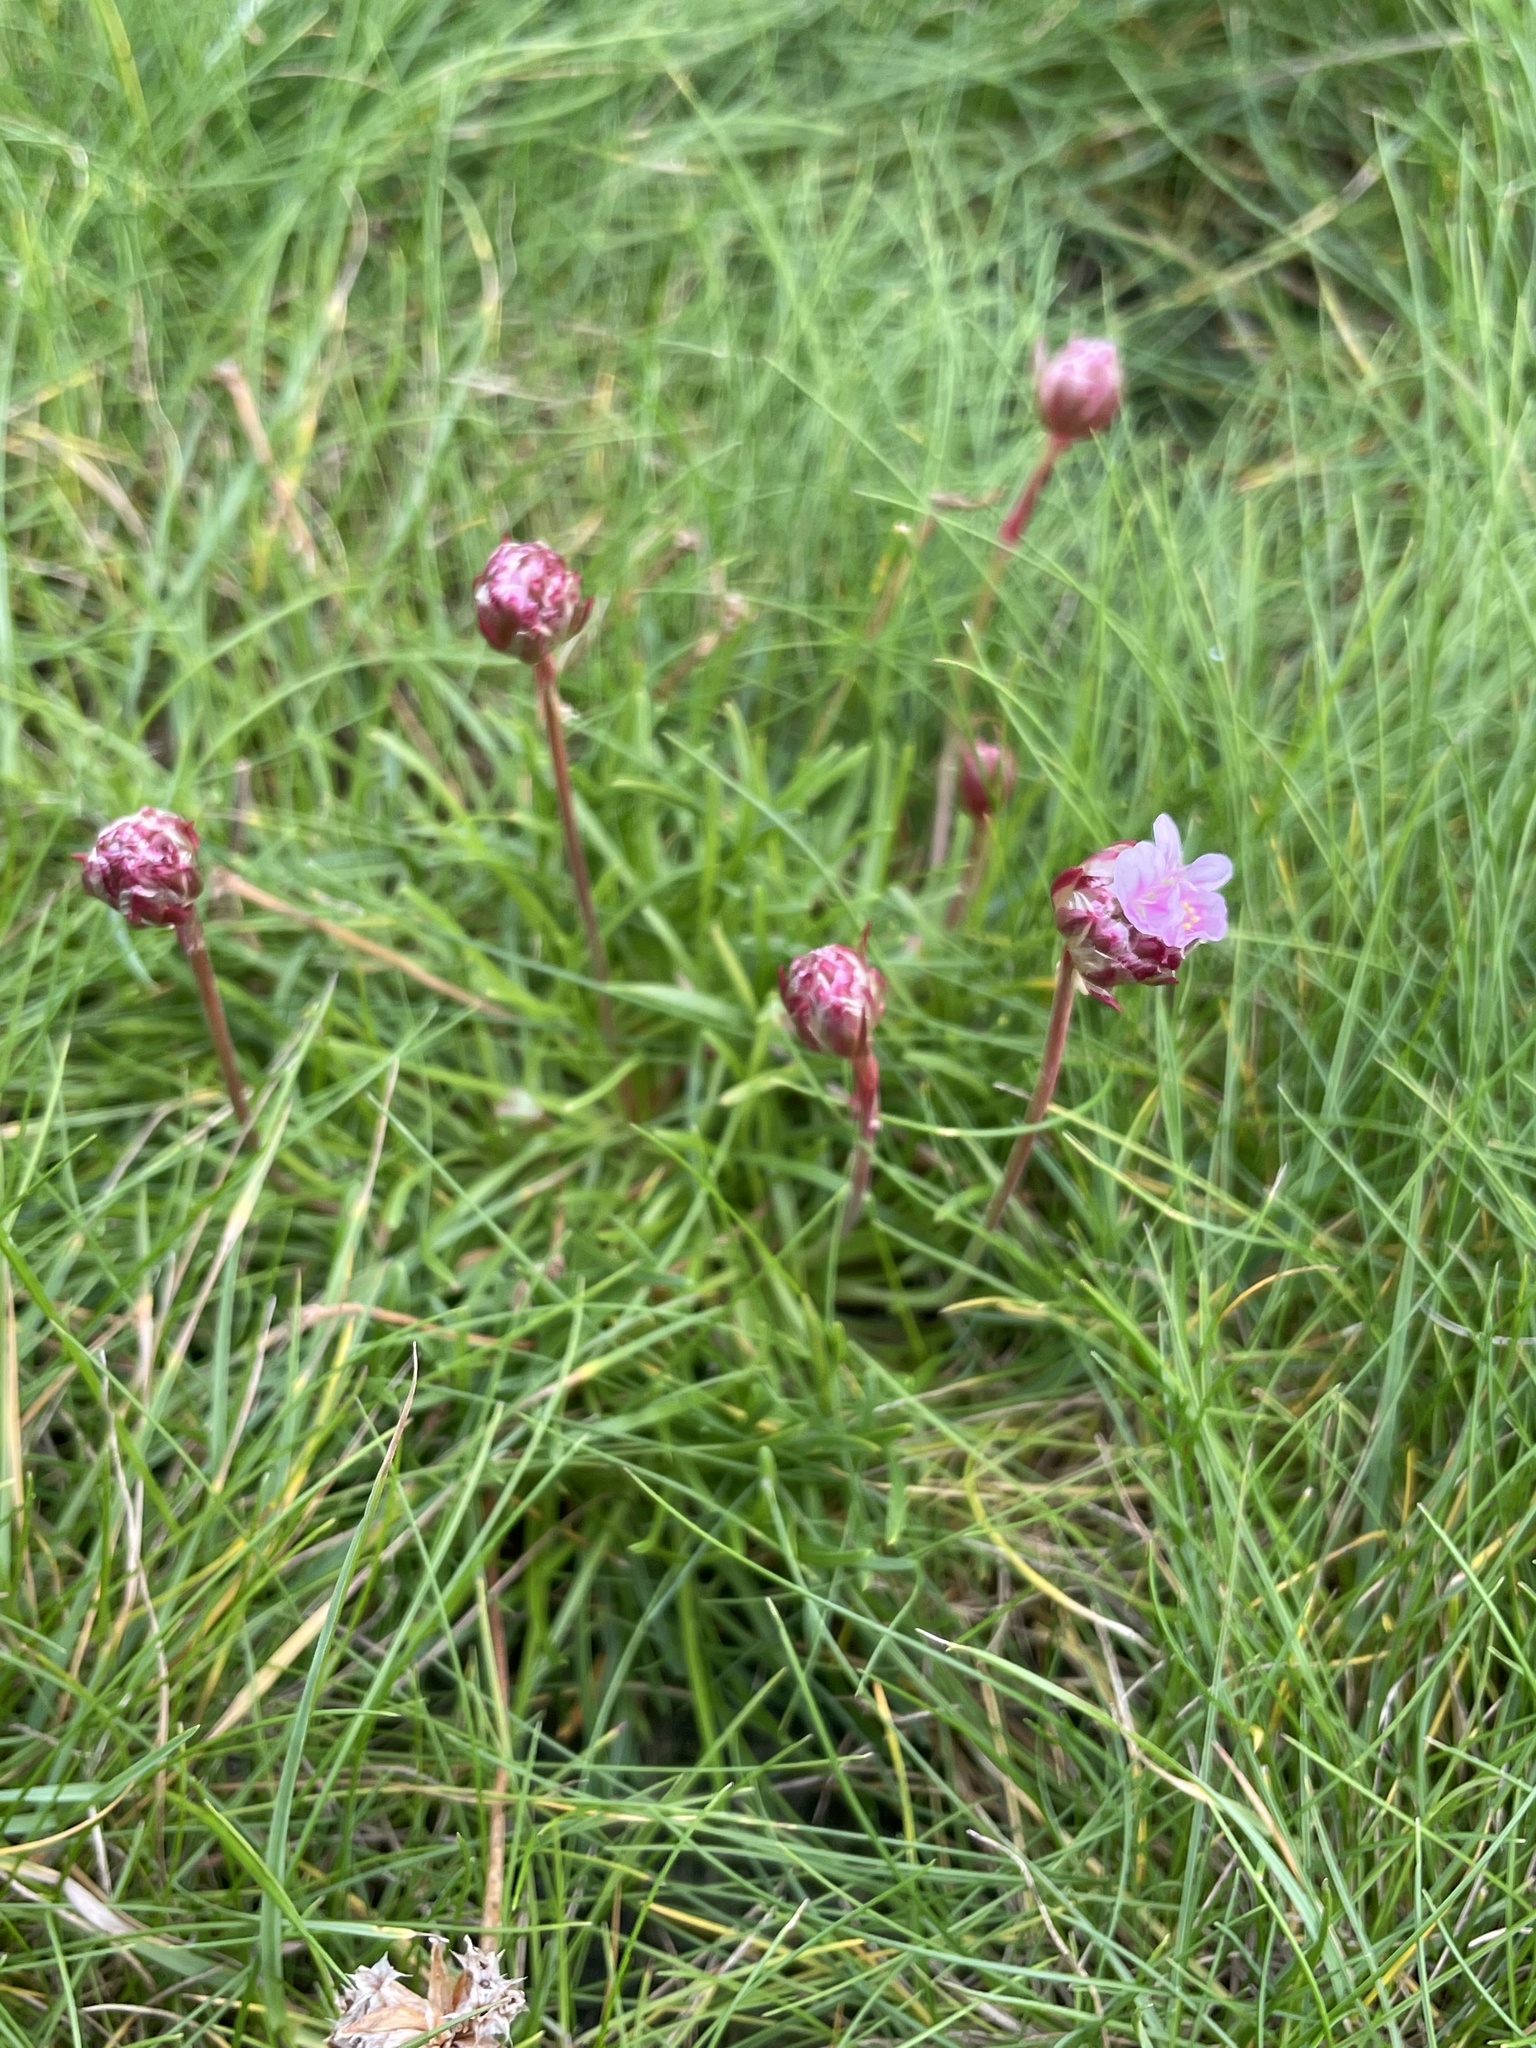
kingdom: Plantae
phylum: Tracheophyta
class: Magnoliopsida
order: Caryophyllales
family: Plumbaginaceae
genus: Armeria
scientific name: Armeria maritima
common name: Thrift
